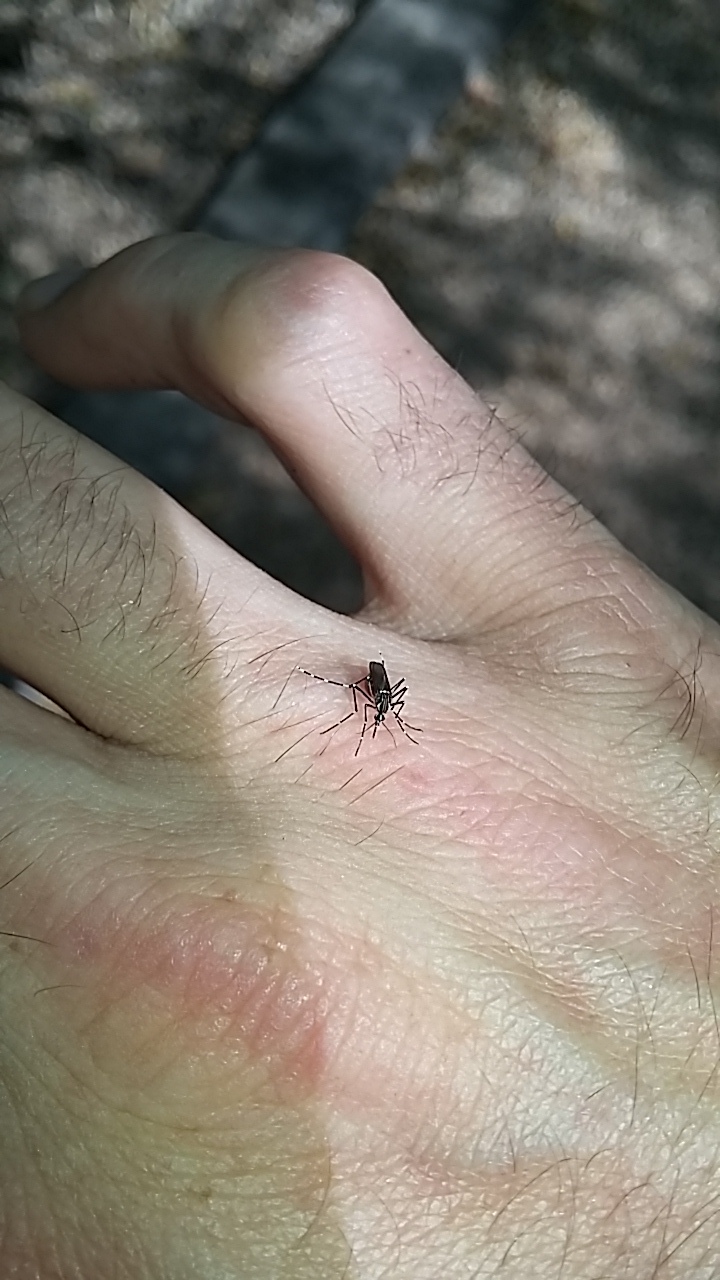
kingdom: Animalia
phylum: Arthropoda
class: Insecta
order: Diptera
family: Culicidae
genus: Aedes
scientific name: Aedes aegypti
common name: Yellow fever mosquito
